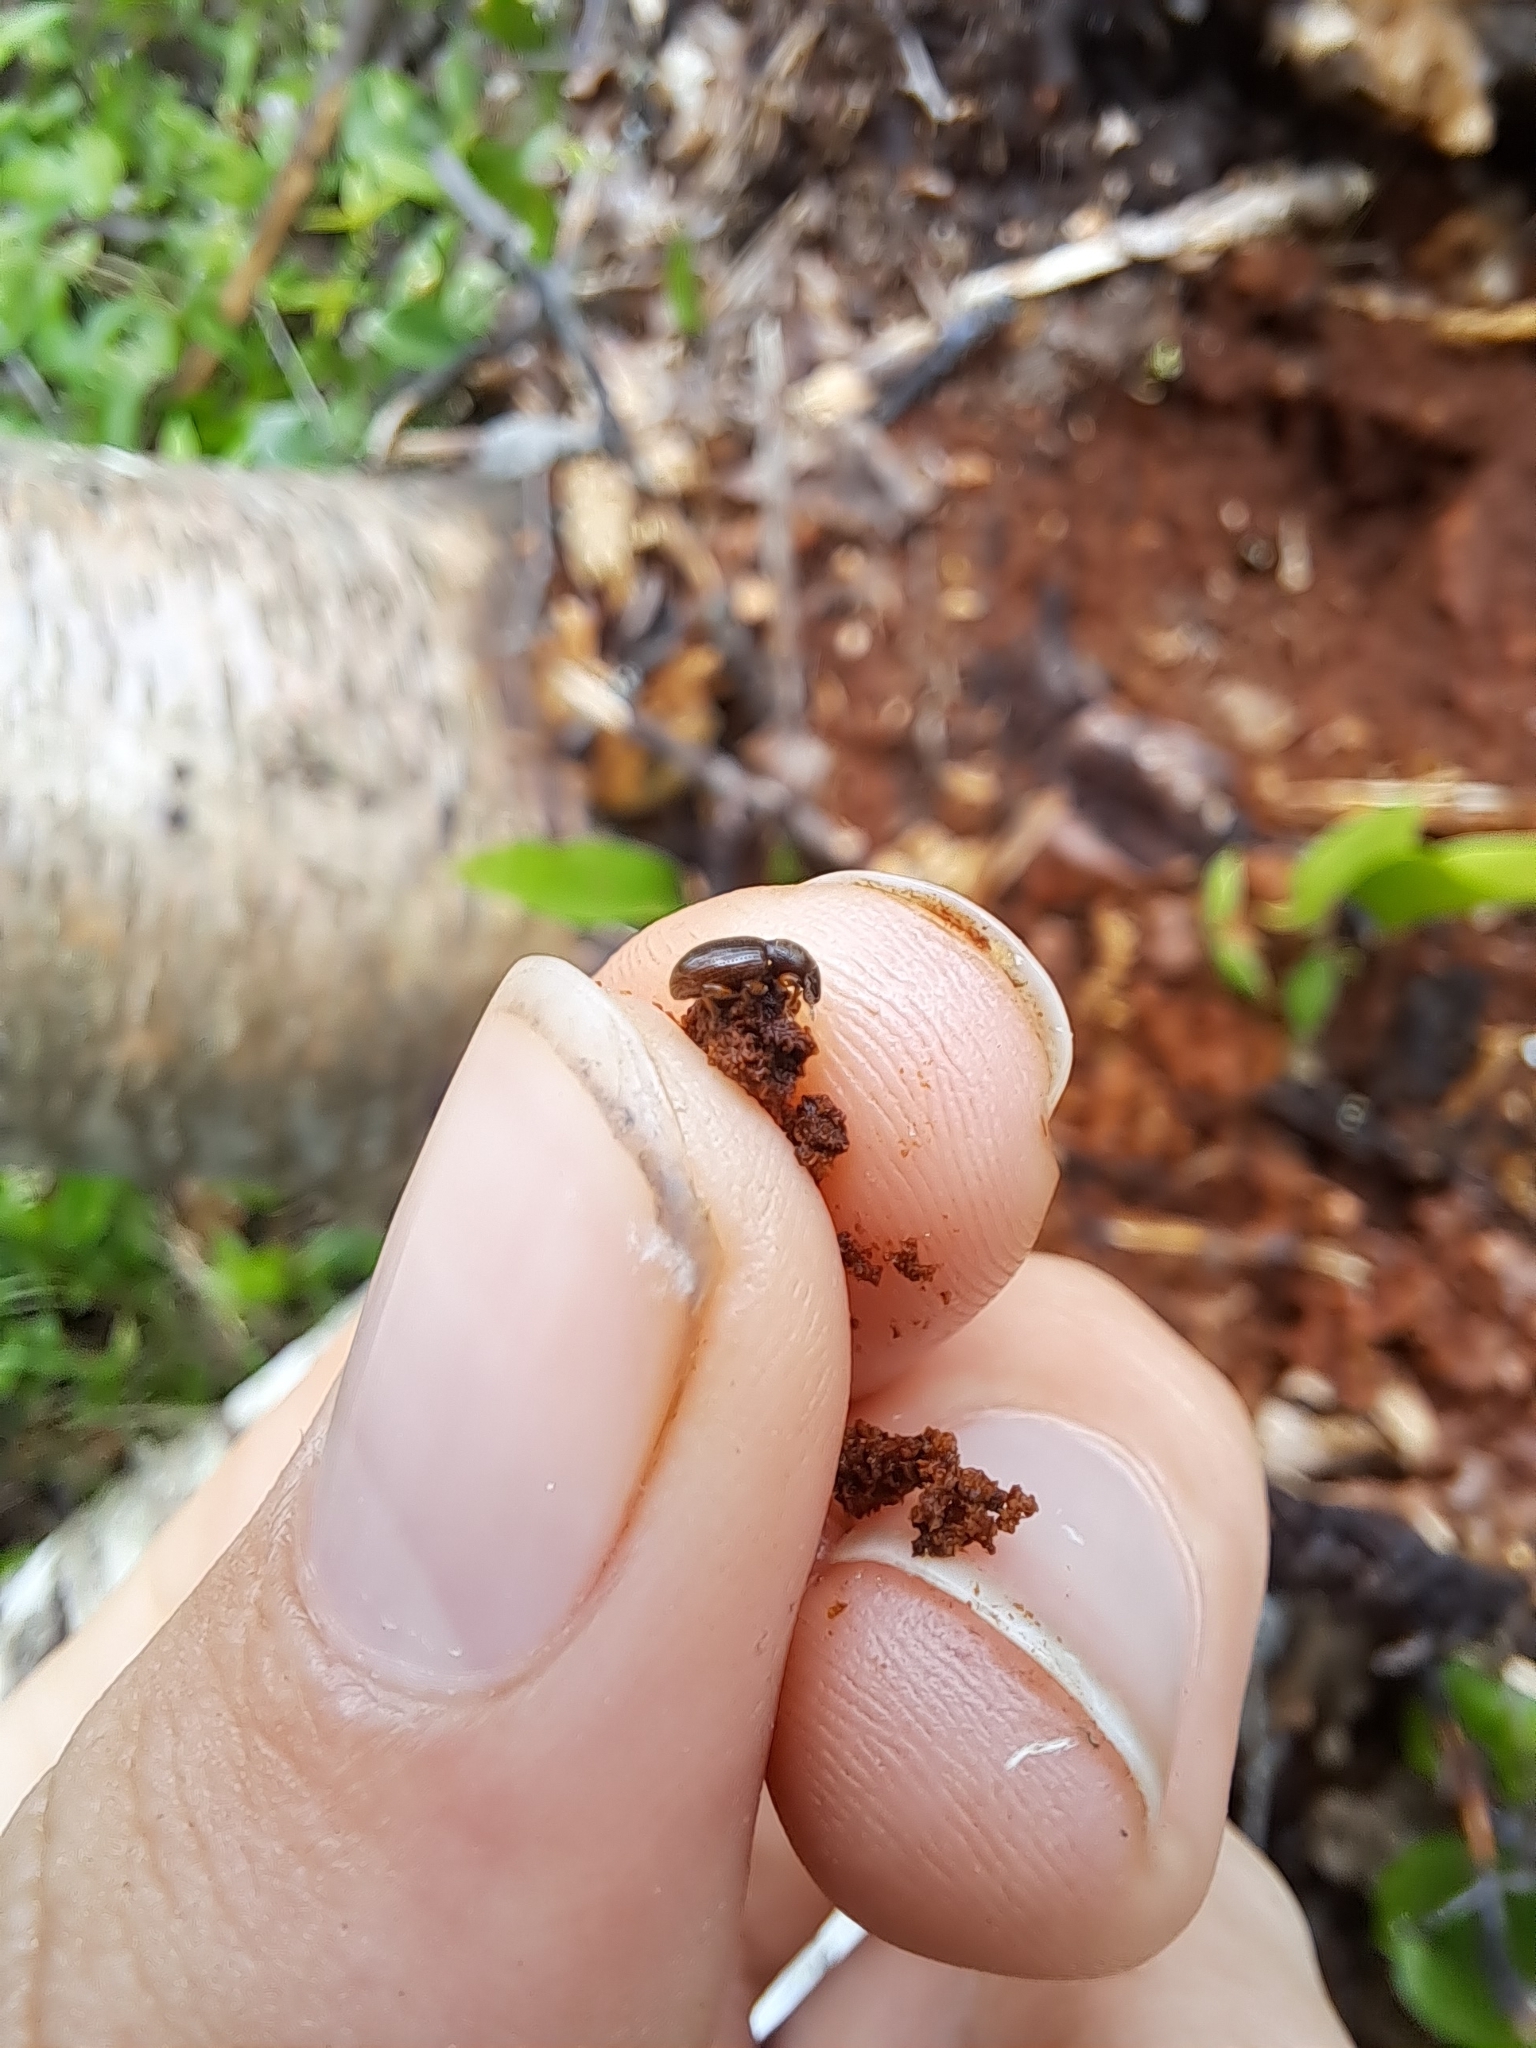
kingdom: Animalia
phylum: Arthropoda
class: Insecta
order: Coleoptera
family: Curculionidae
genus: Exomias
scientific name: Exomias pellucidus
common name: Hairy spider weevil
